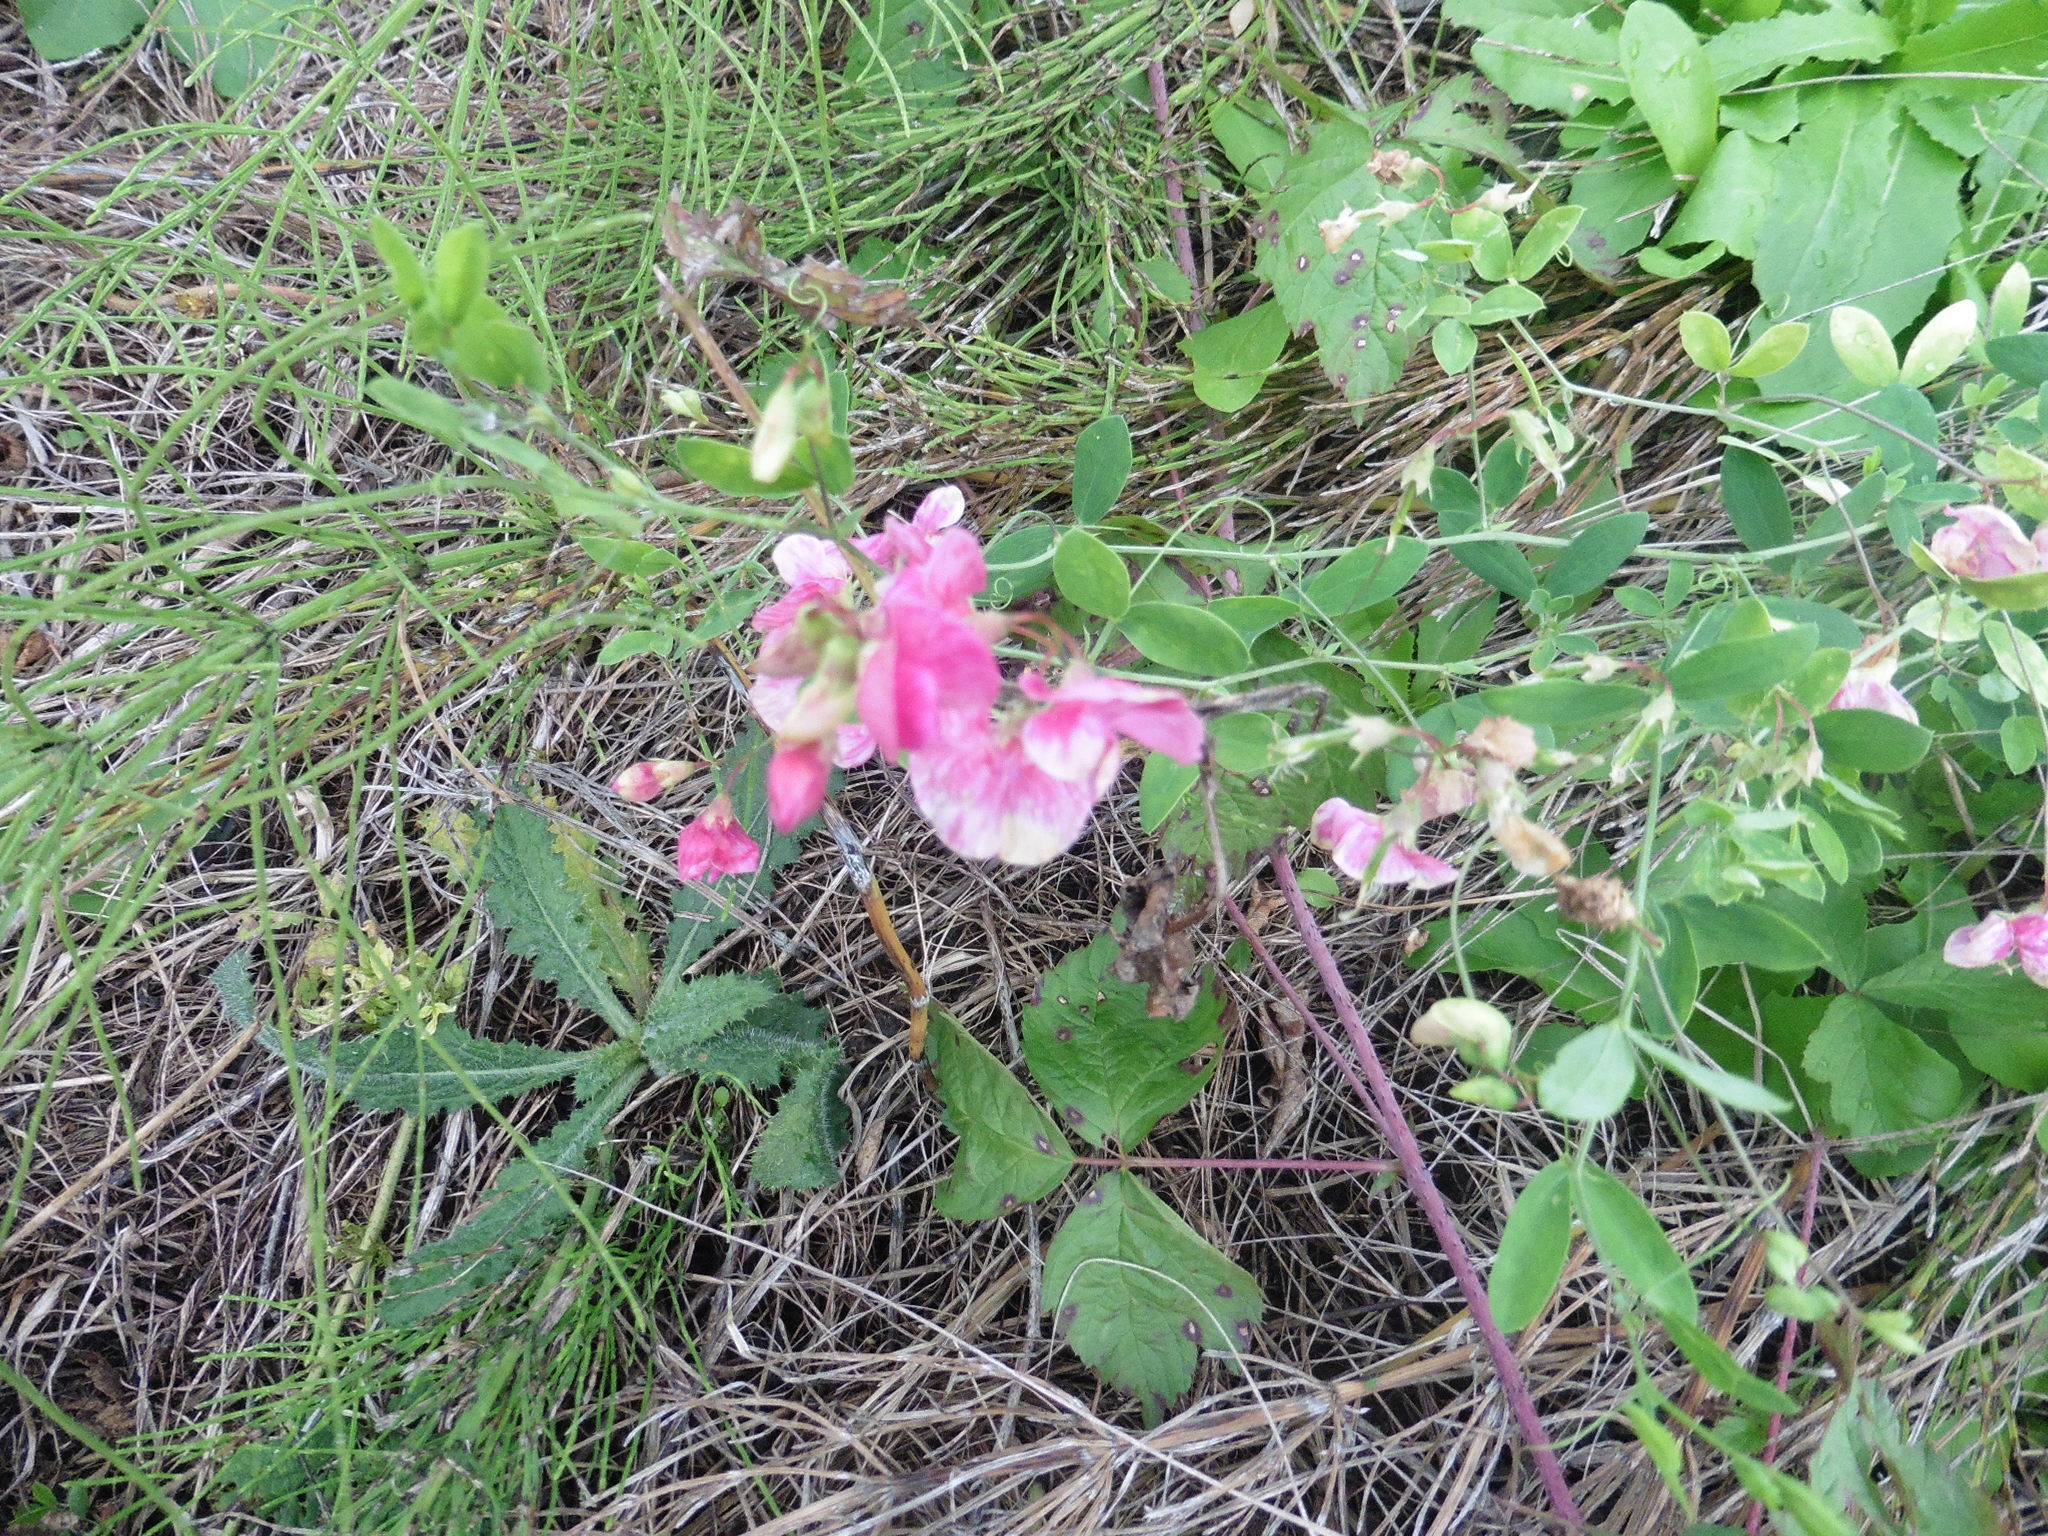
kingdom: Plantae
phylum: Tracheophyta
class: Magnoliopsida
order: Fabales
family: Fabaceae
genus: Lathyrus
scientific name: Lathyrus tuberosus
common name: Tuberous pea
